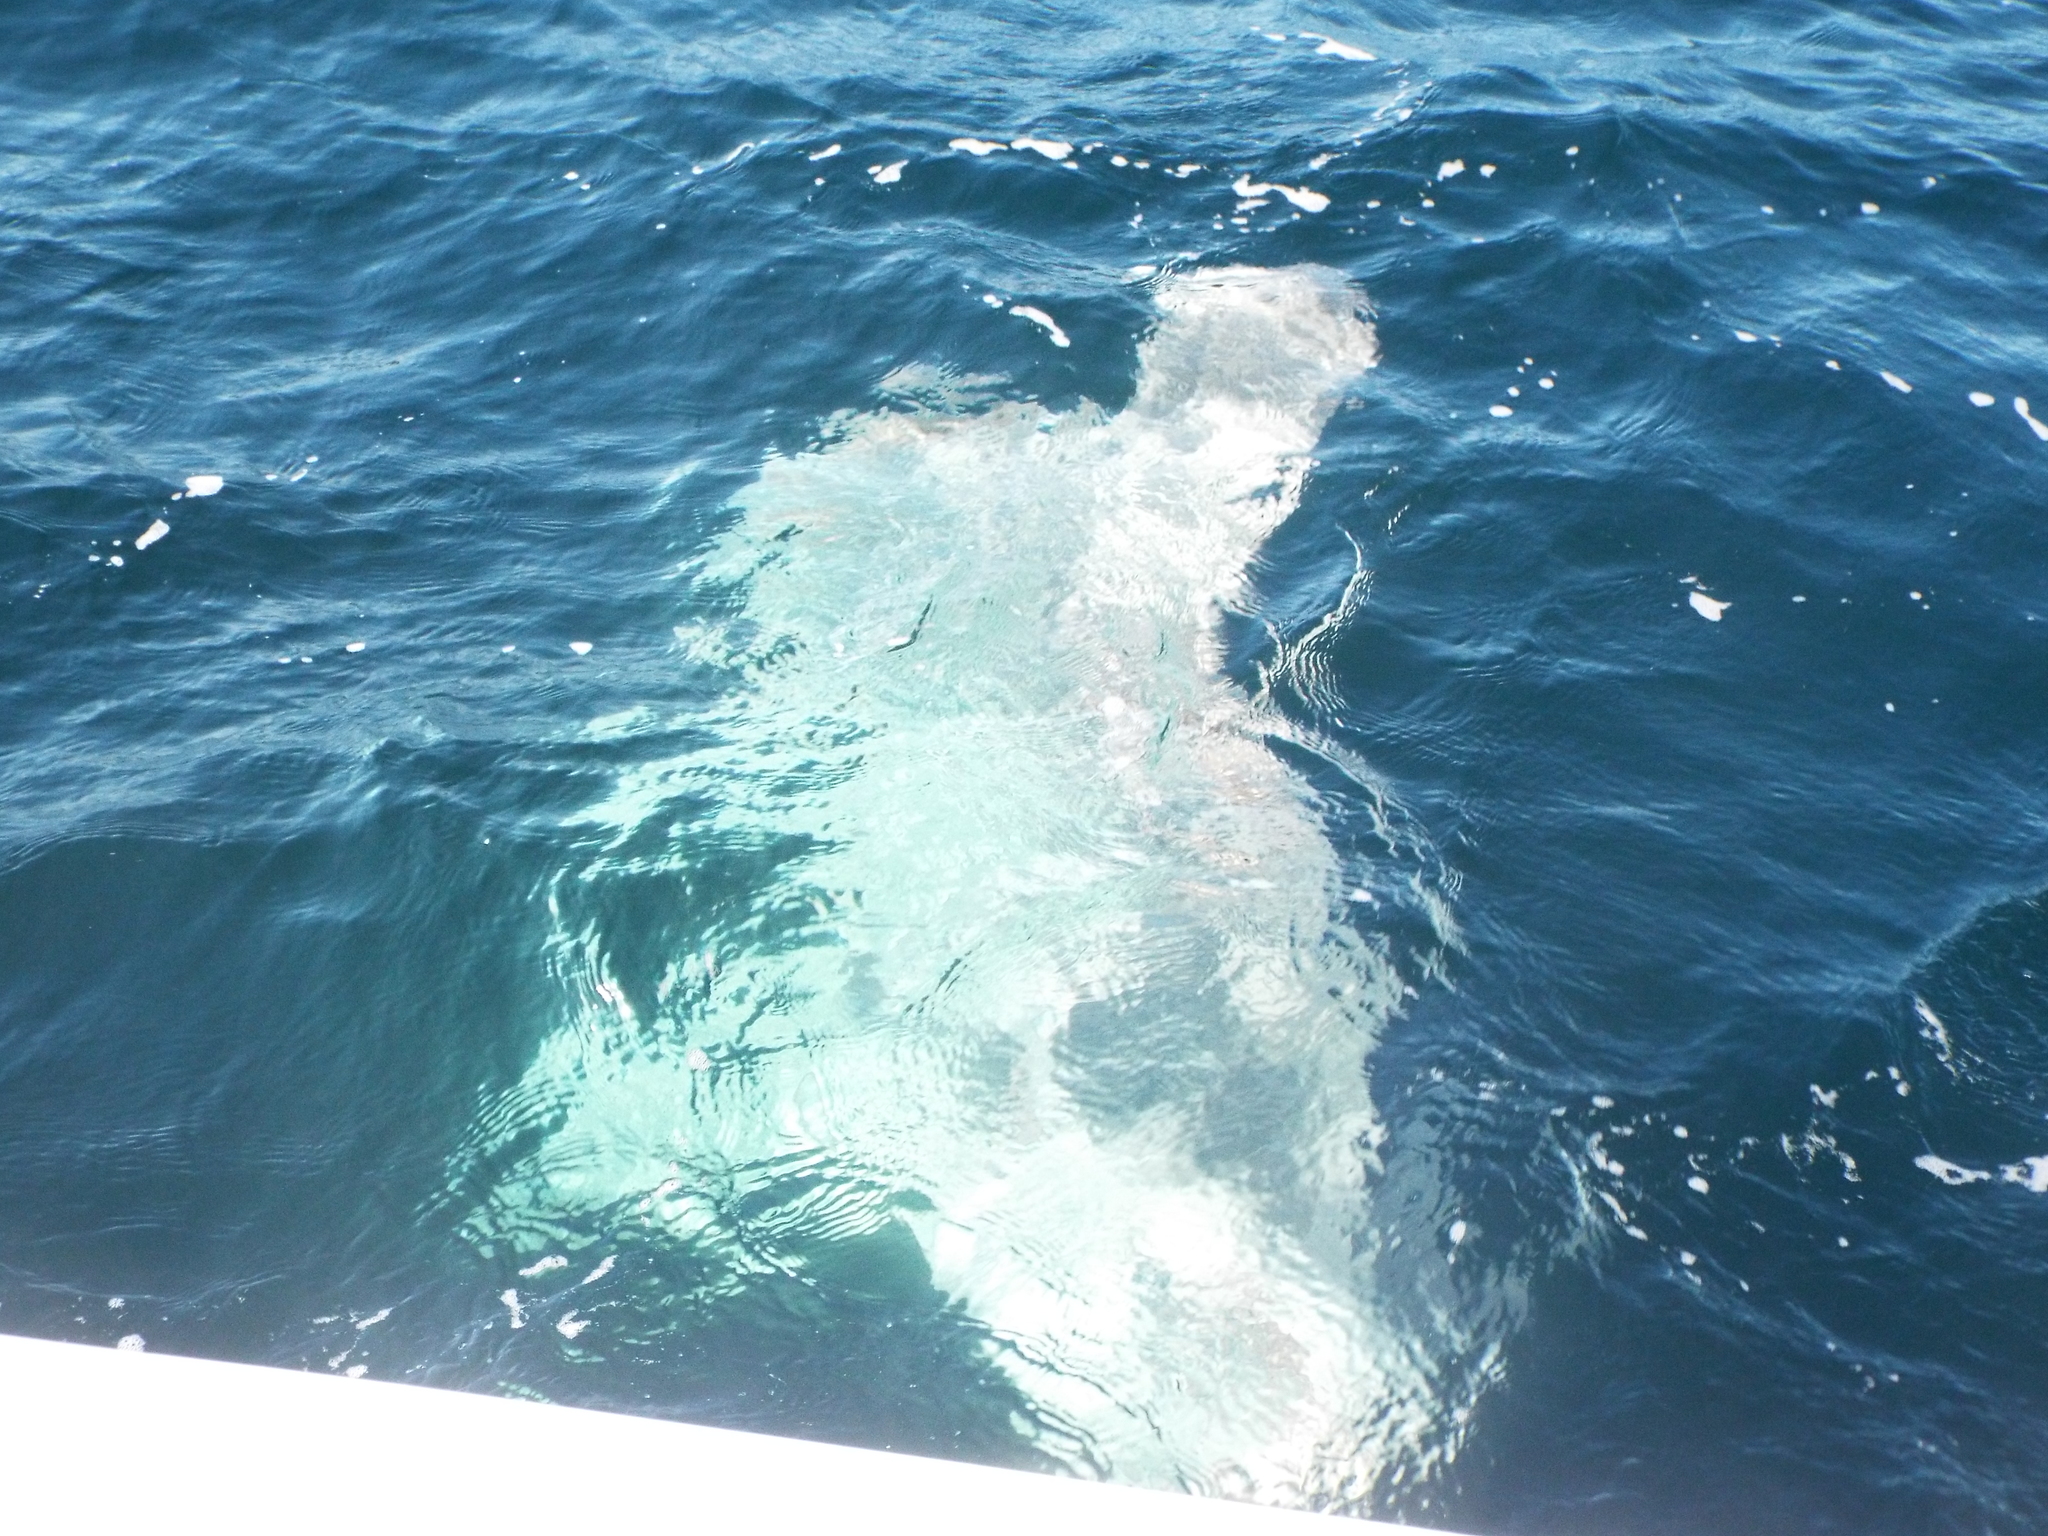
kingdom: Animalia
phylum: Chordata
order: Tetraodontiformes
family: Molidae
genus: Mola
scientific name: Mola mola
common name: Ocean sunfish
